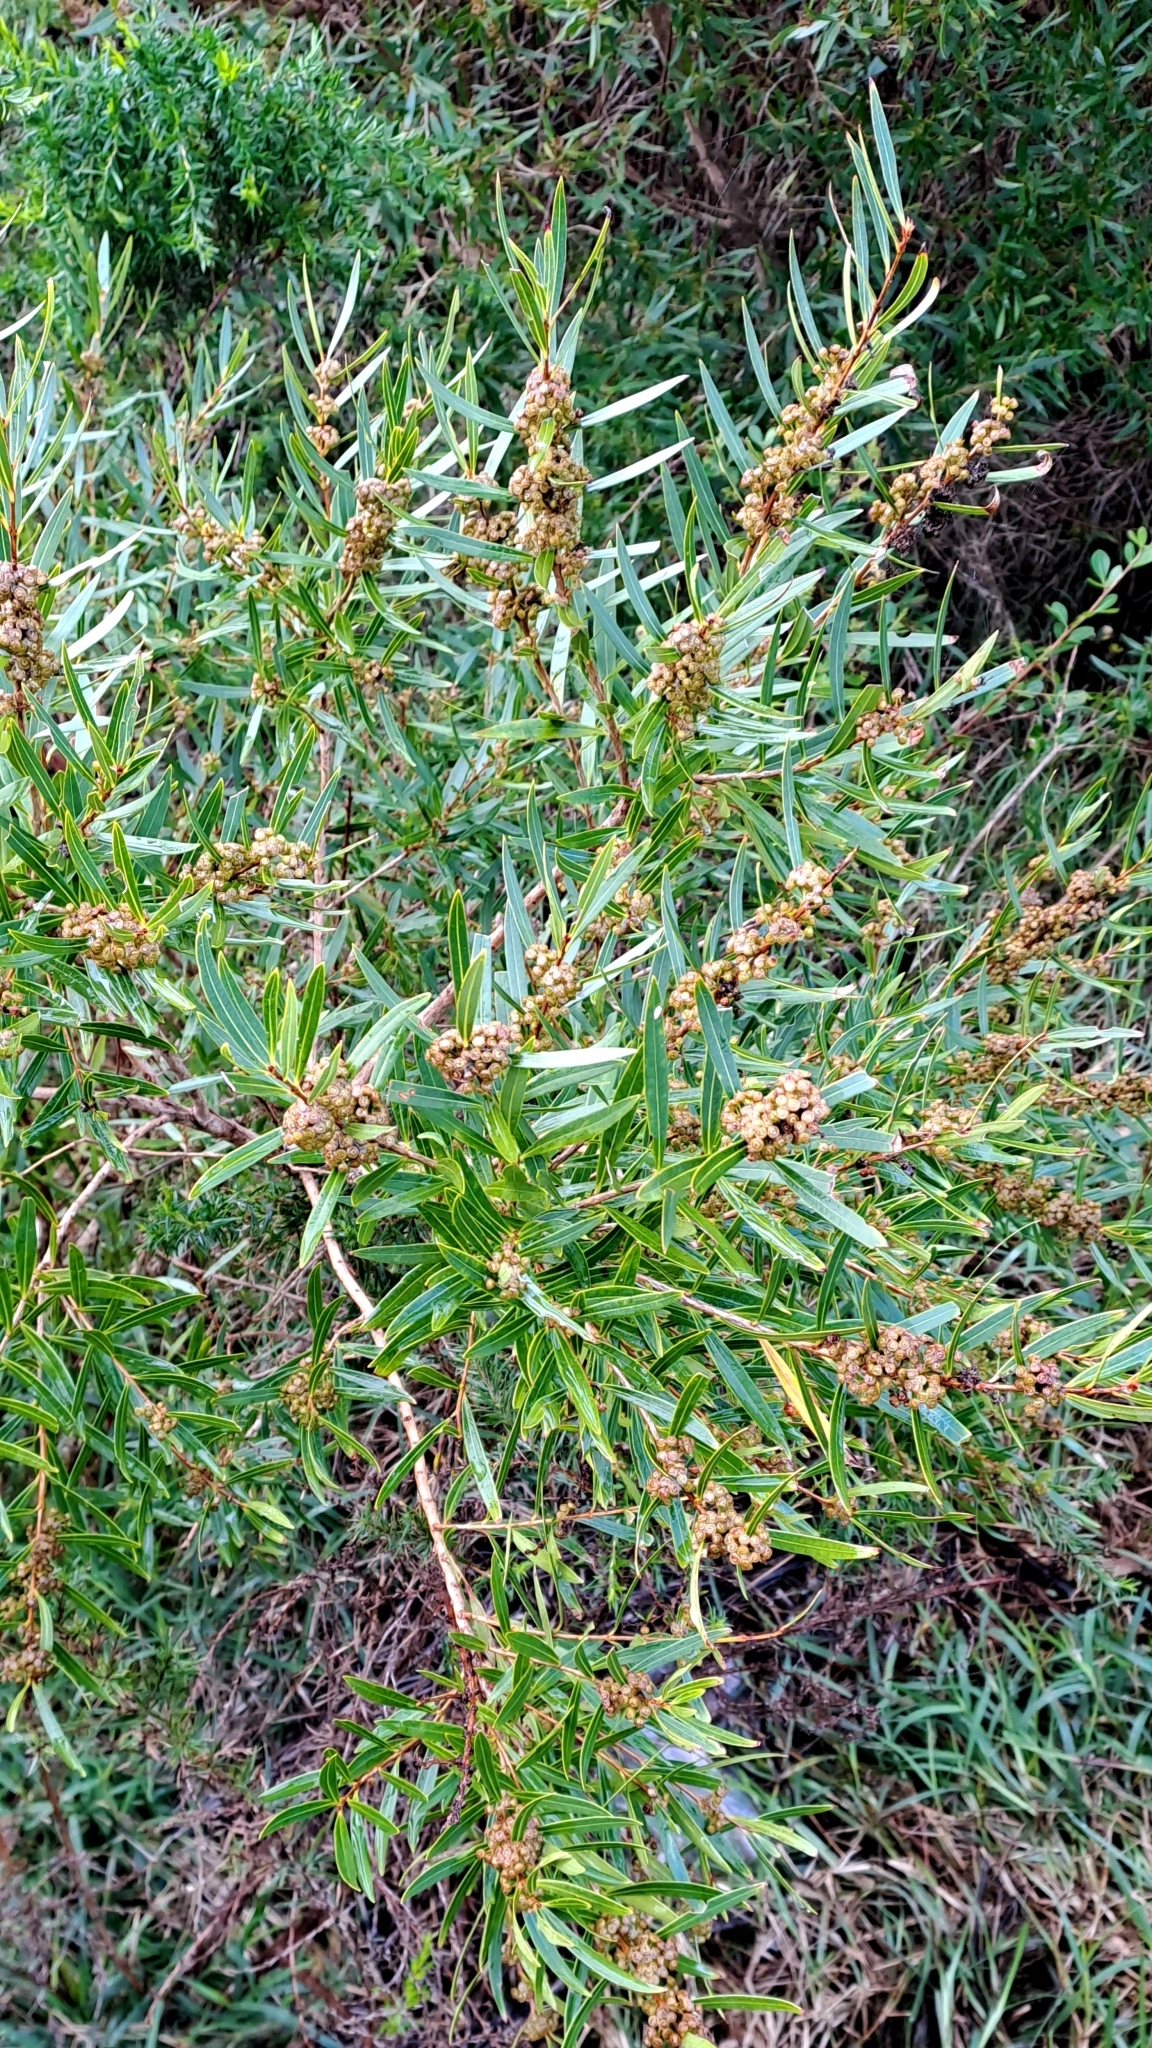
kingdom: Plantae
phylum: Tracheophyta
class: Magnoliopsida
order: Myrtales
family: Myrtaceae
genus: Callistemon
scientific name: Callistemon lanceolatus
